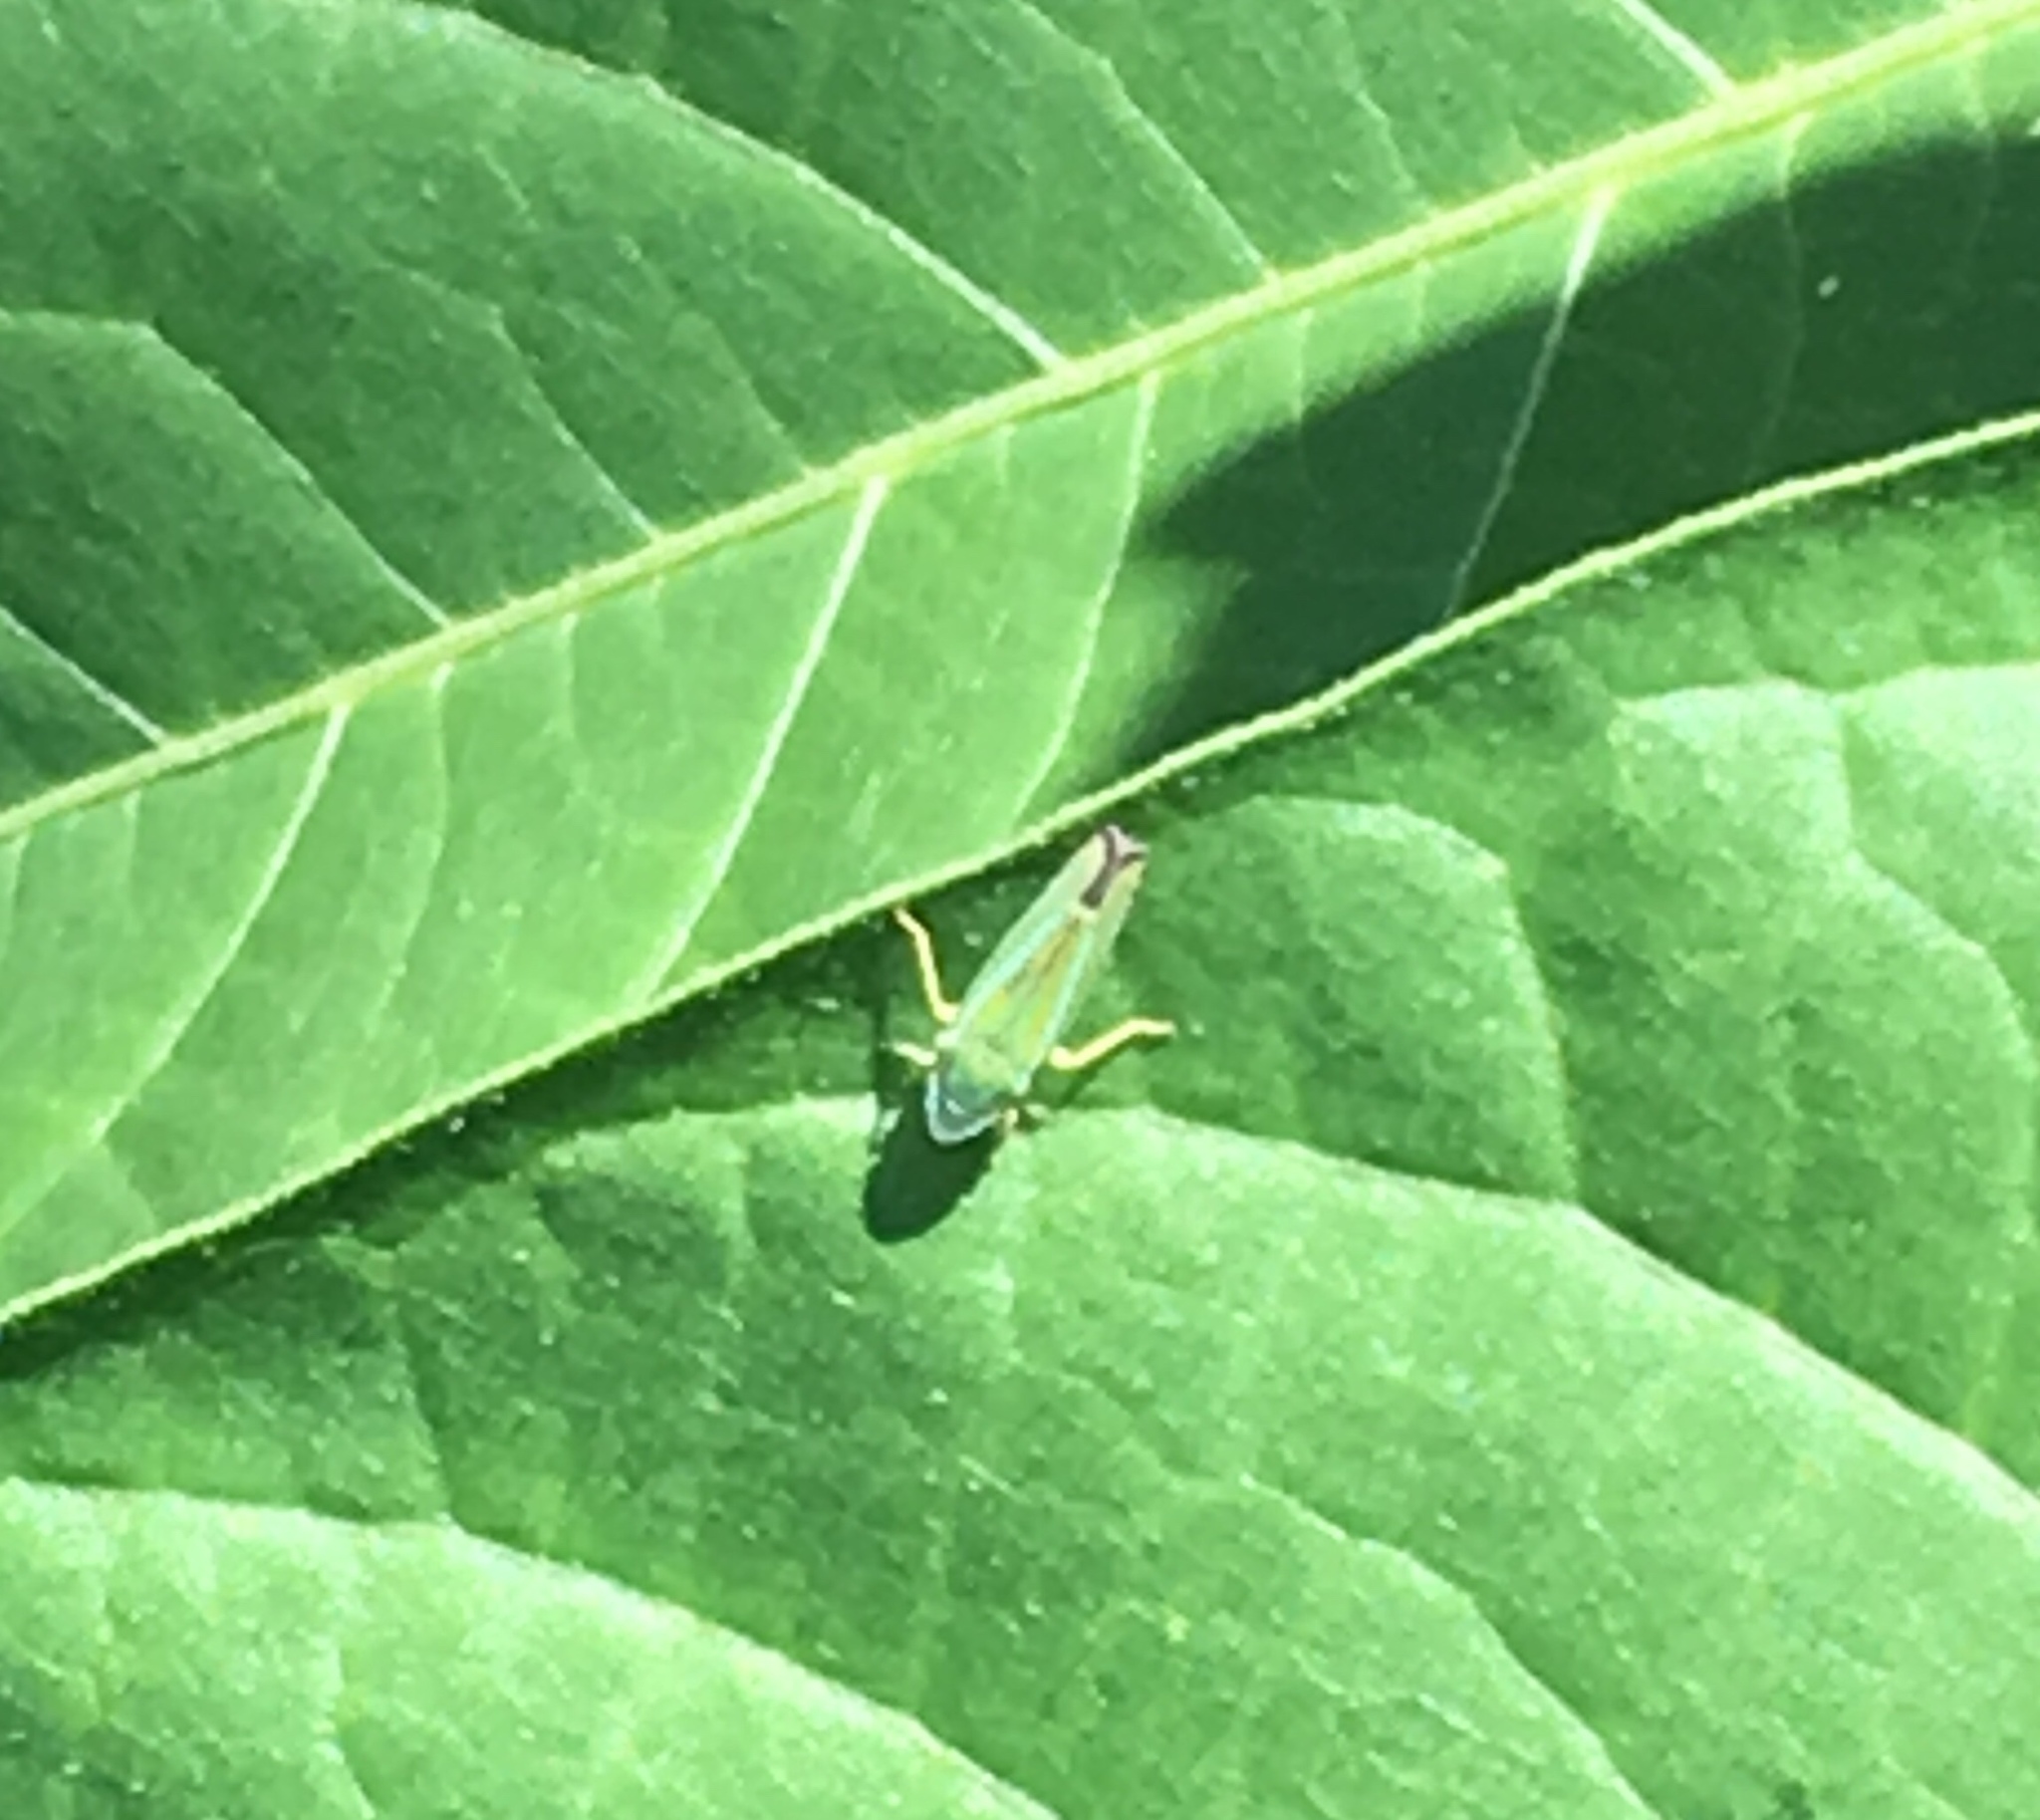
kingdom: Animalia
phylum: Arthropoda
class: Insecta
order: Hemiptera
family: Cicadellidae
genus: Graphocephala
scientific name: Graphocephala versuta
